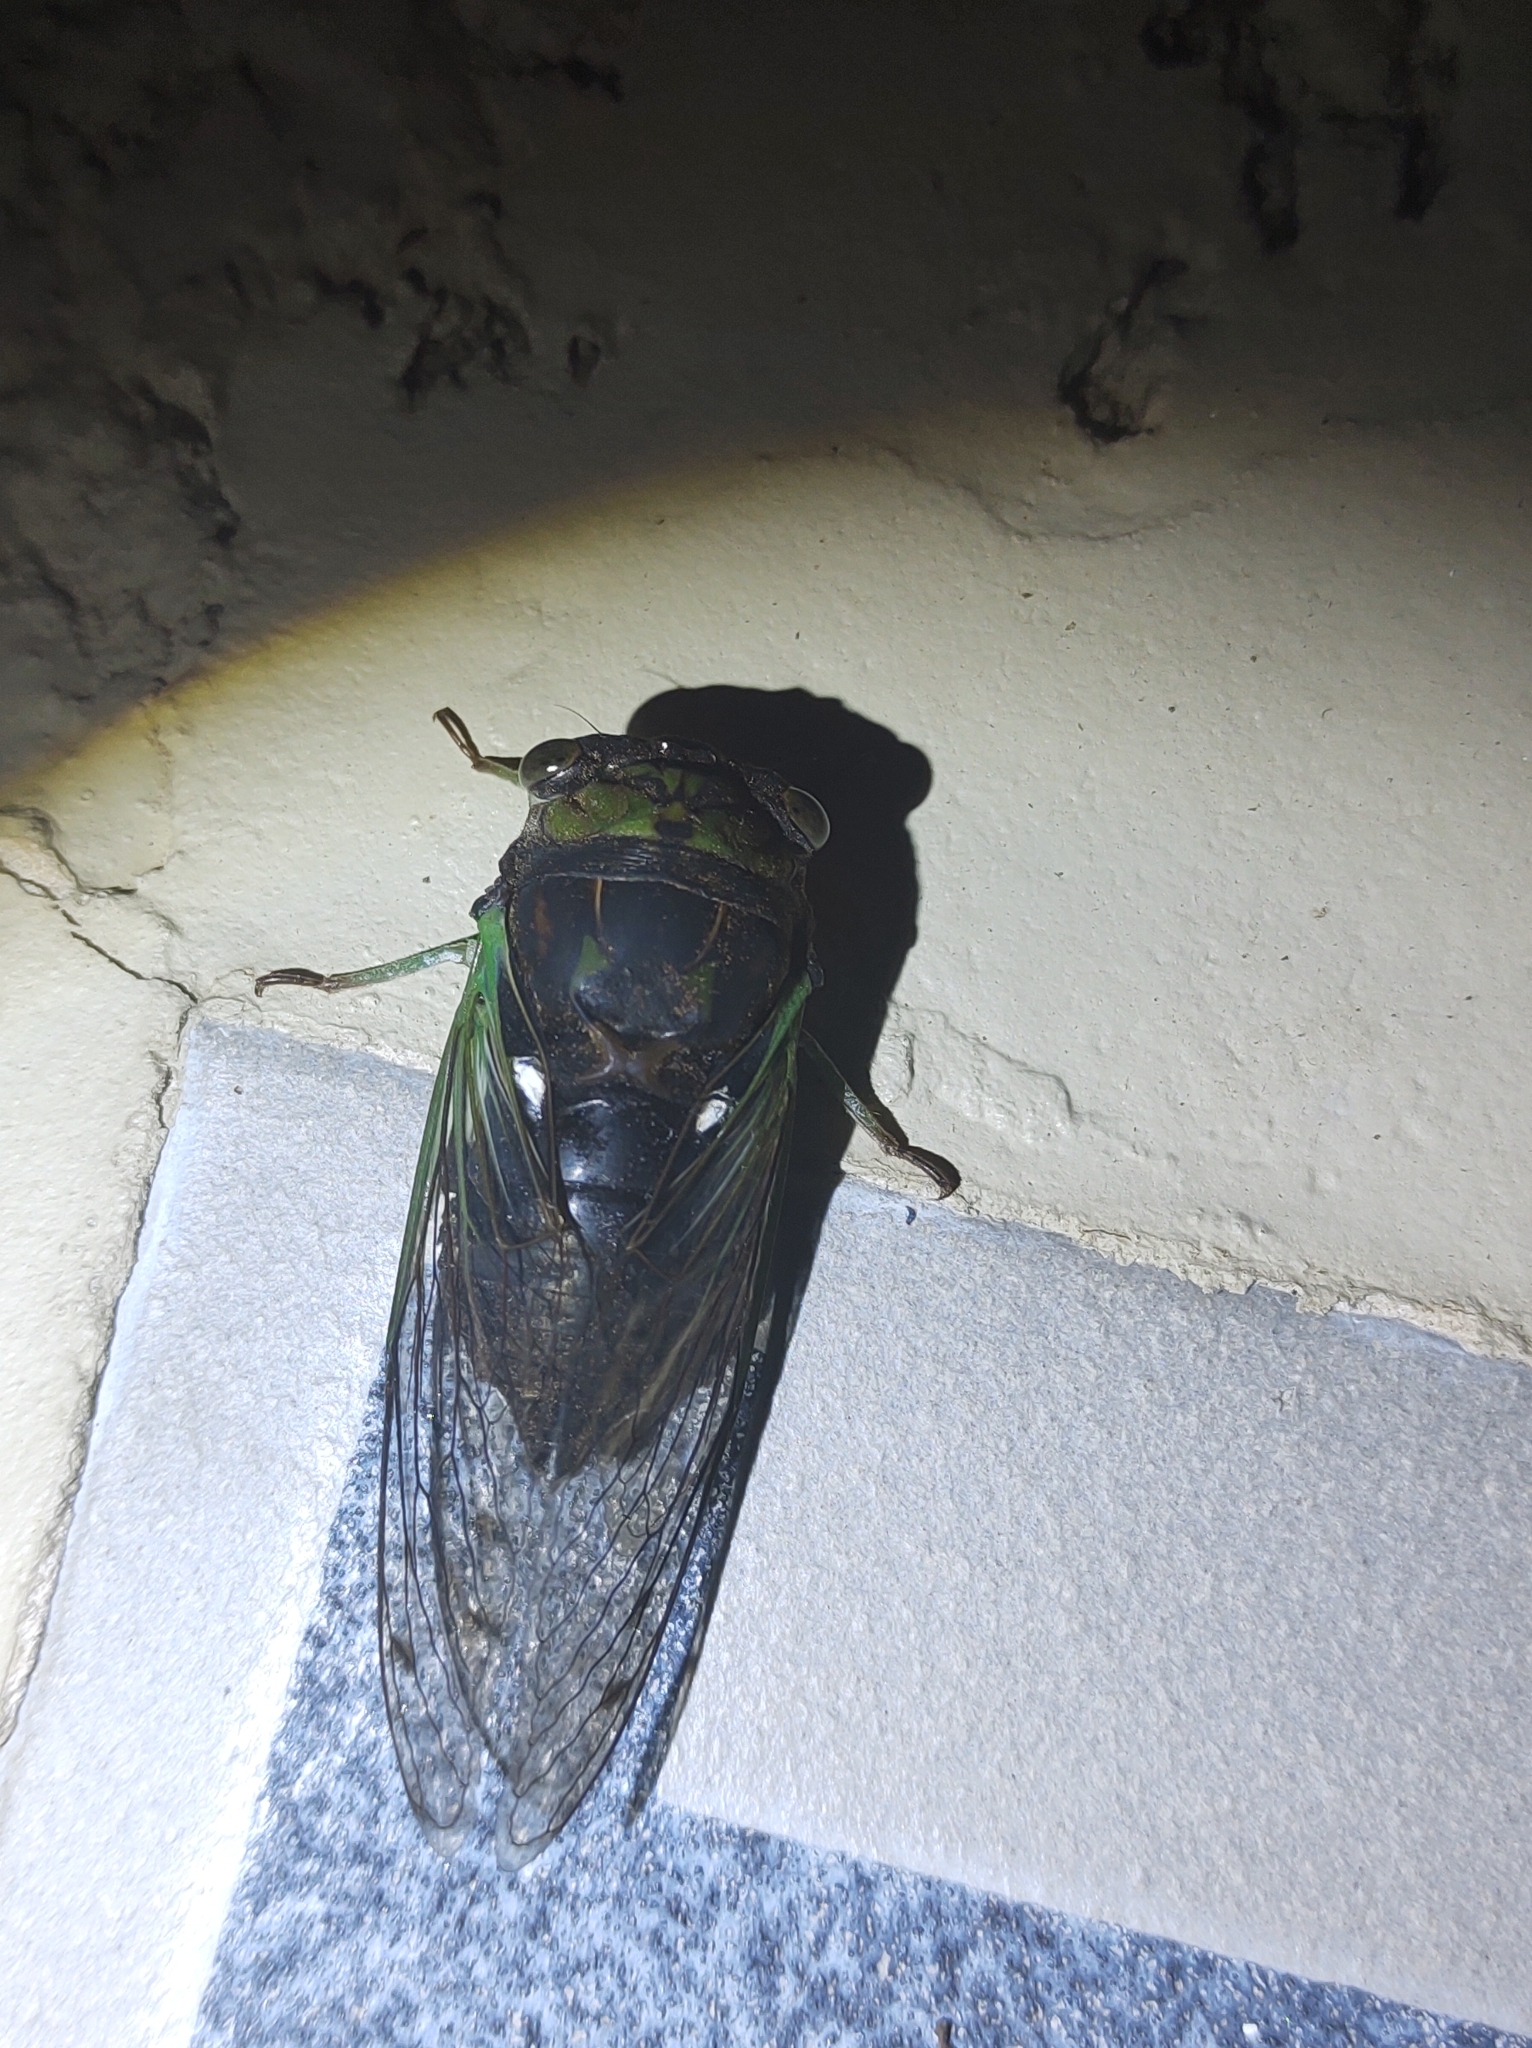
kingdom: Animalia
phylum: Arthropoda
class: Insecta
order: Hemiptera
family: Cicadidae
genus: Neotibicen
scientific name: Neotibicen tibicen
